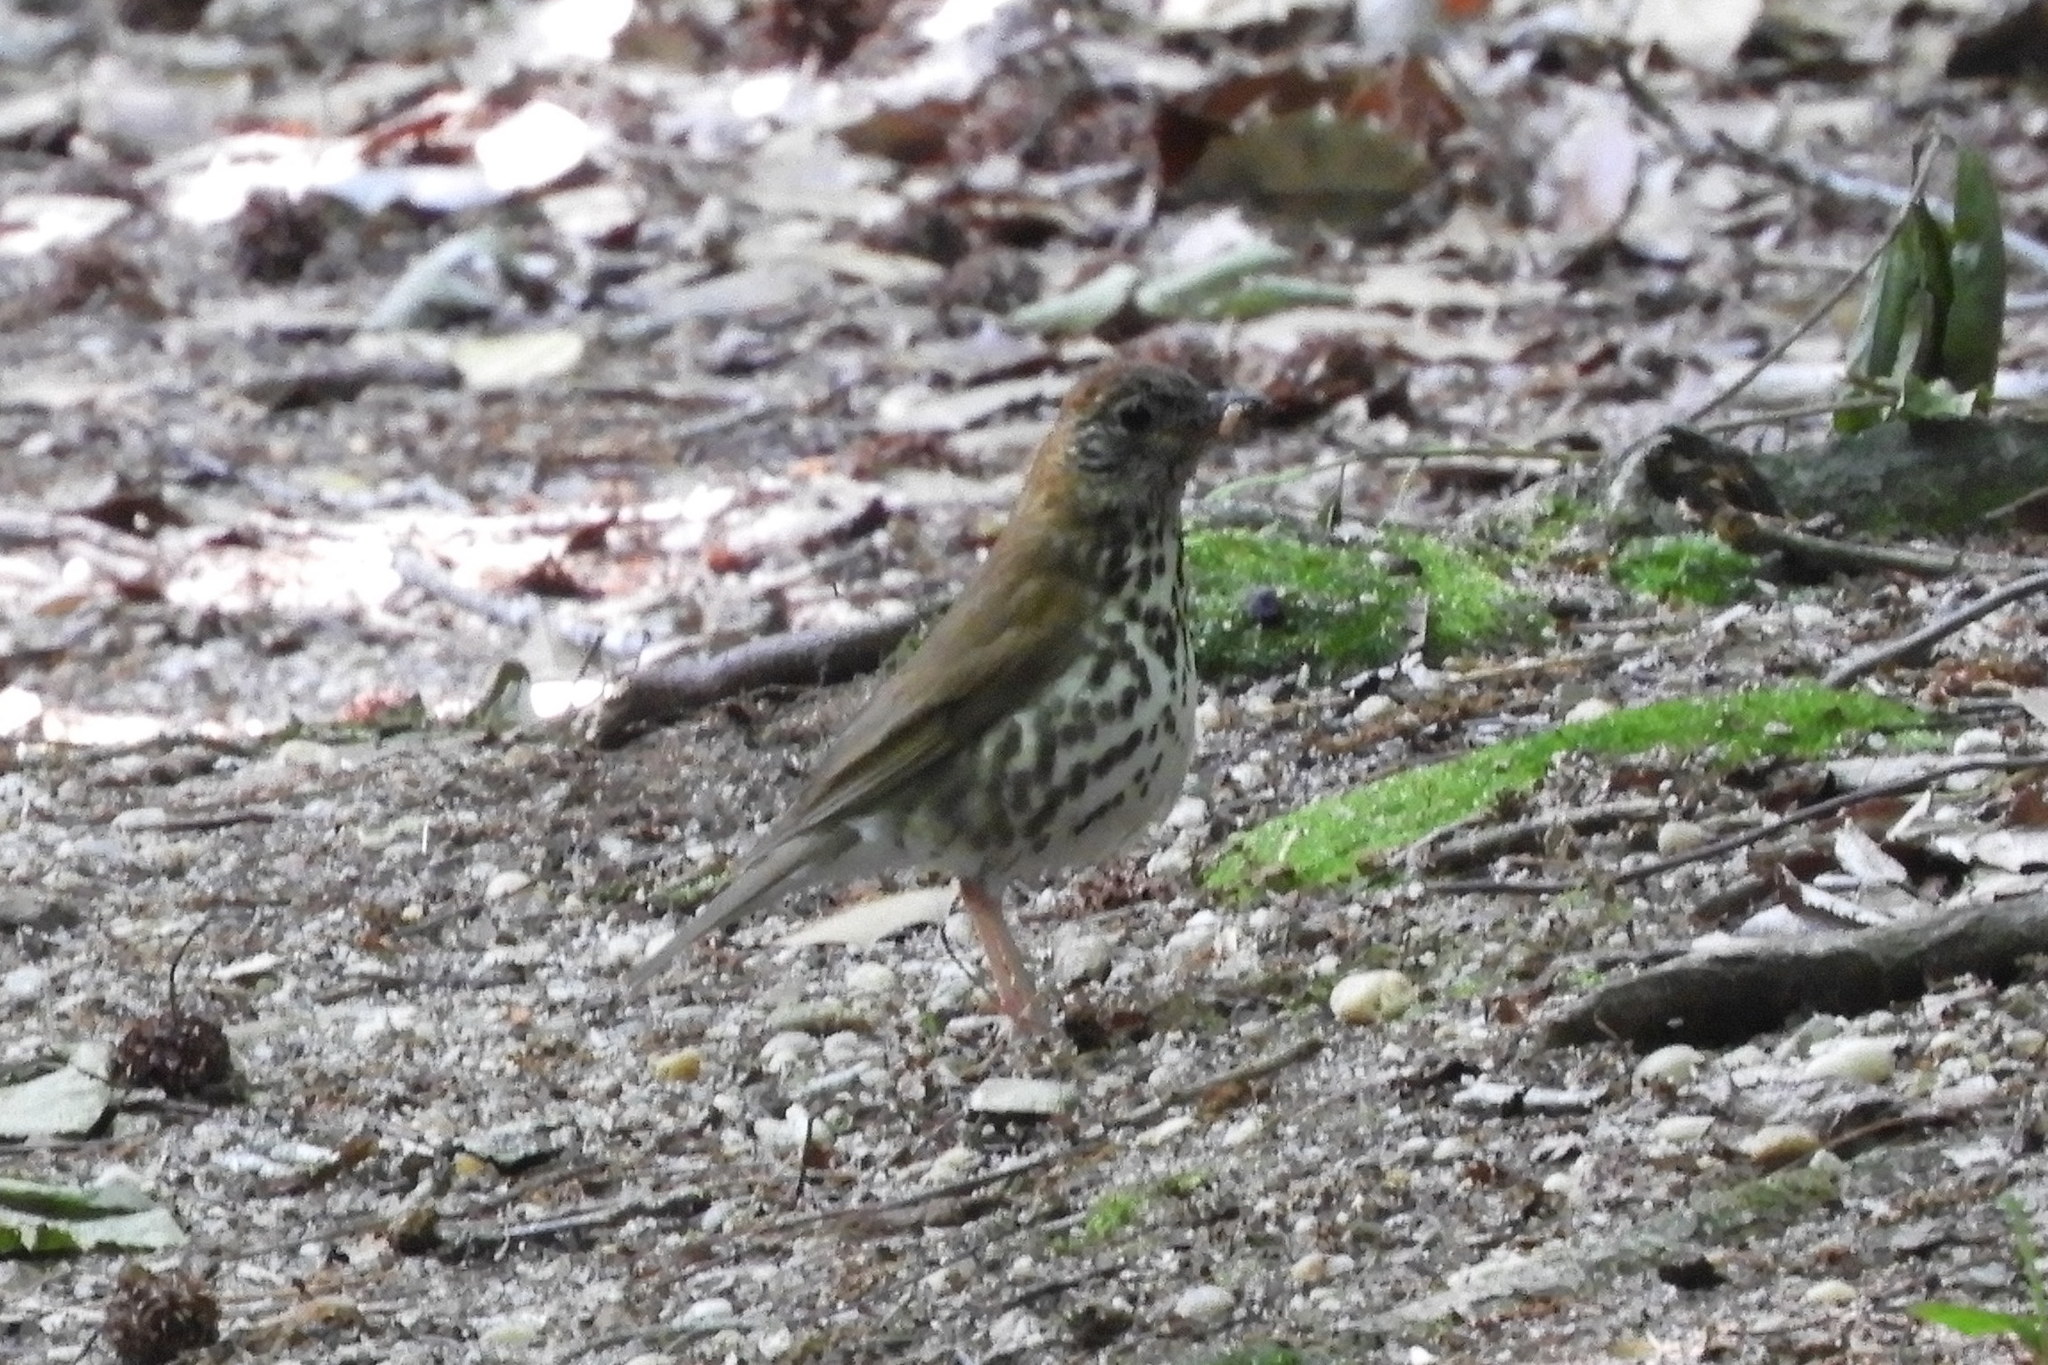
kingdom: Animalia
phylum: Chordata
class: Aves
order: Passeriformes
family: Turdidae
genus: Hylocichla
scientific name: Hylocichla mustelina
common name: Wood thrush
